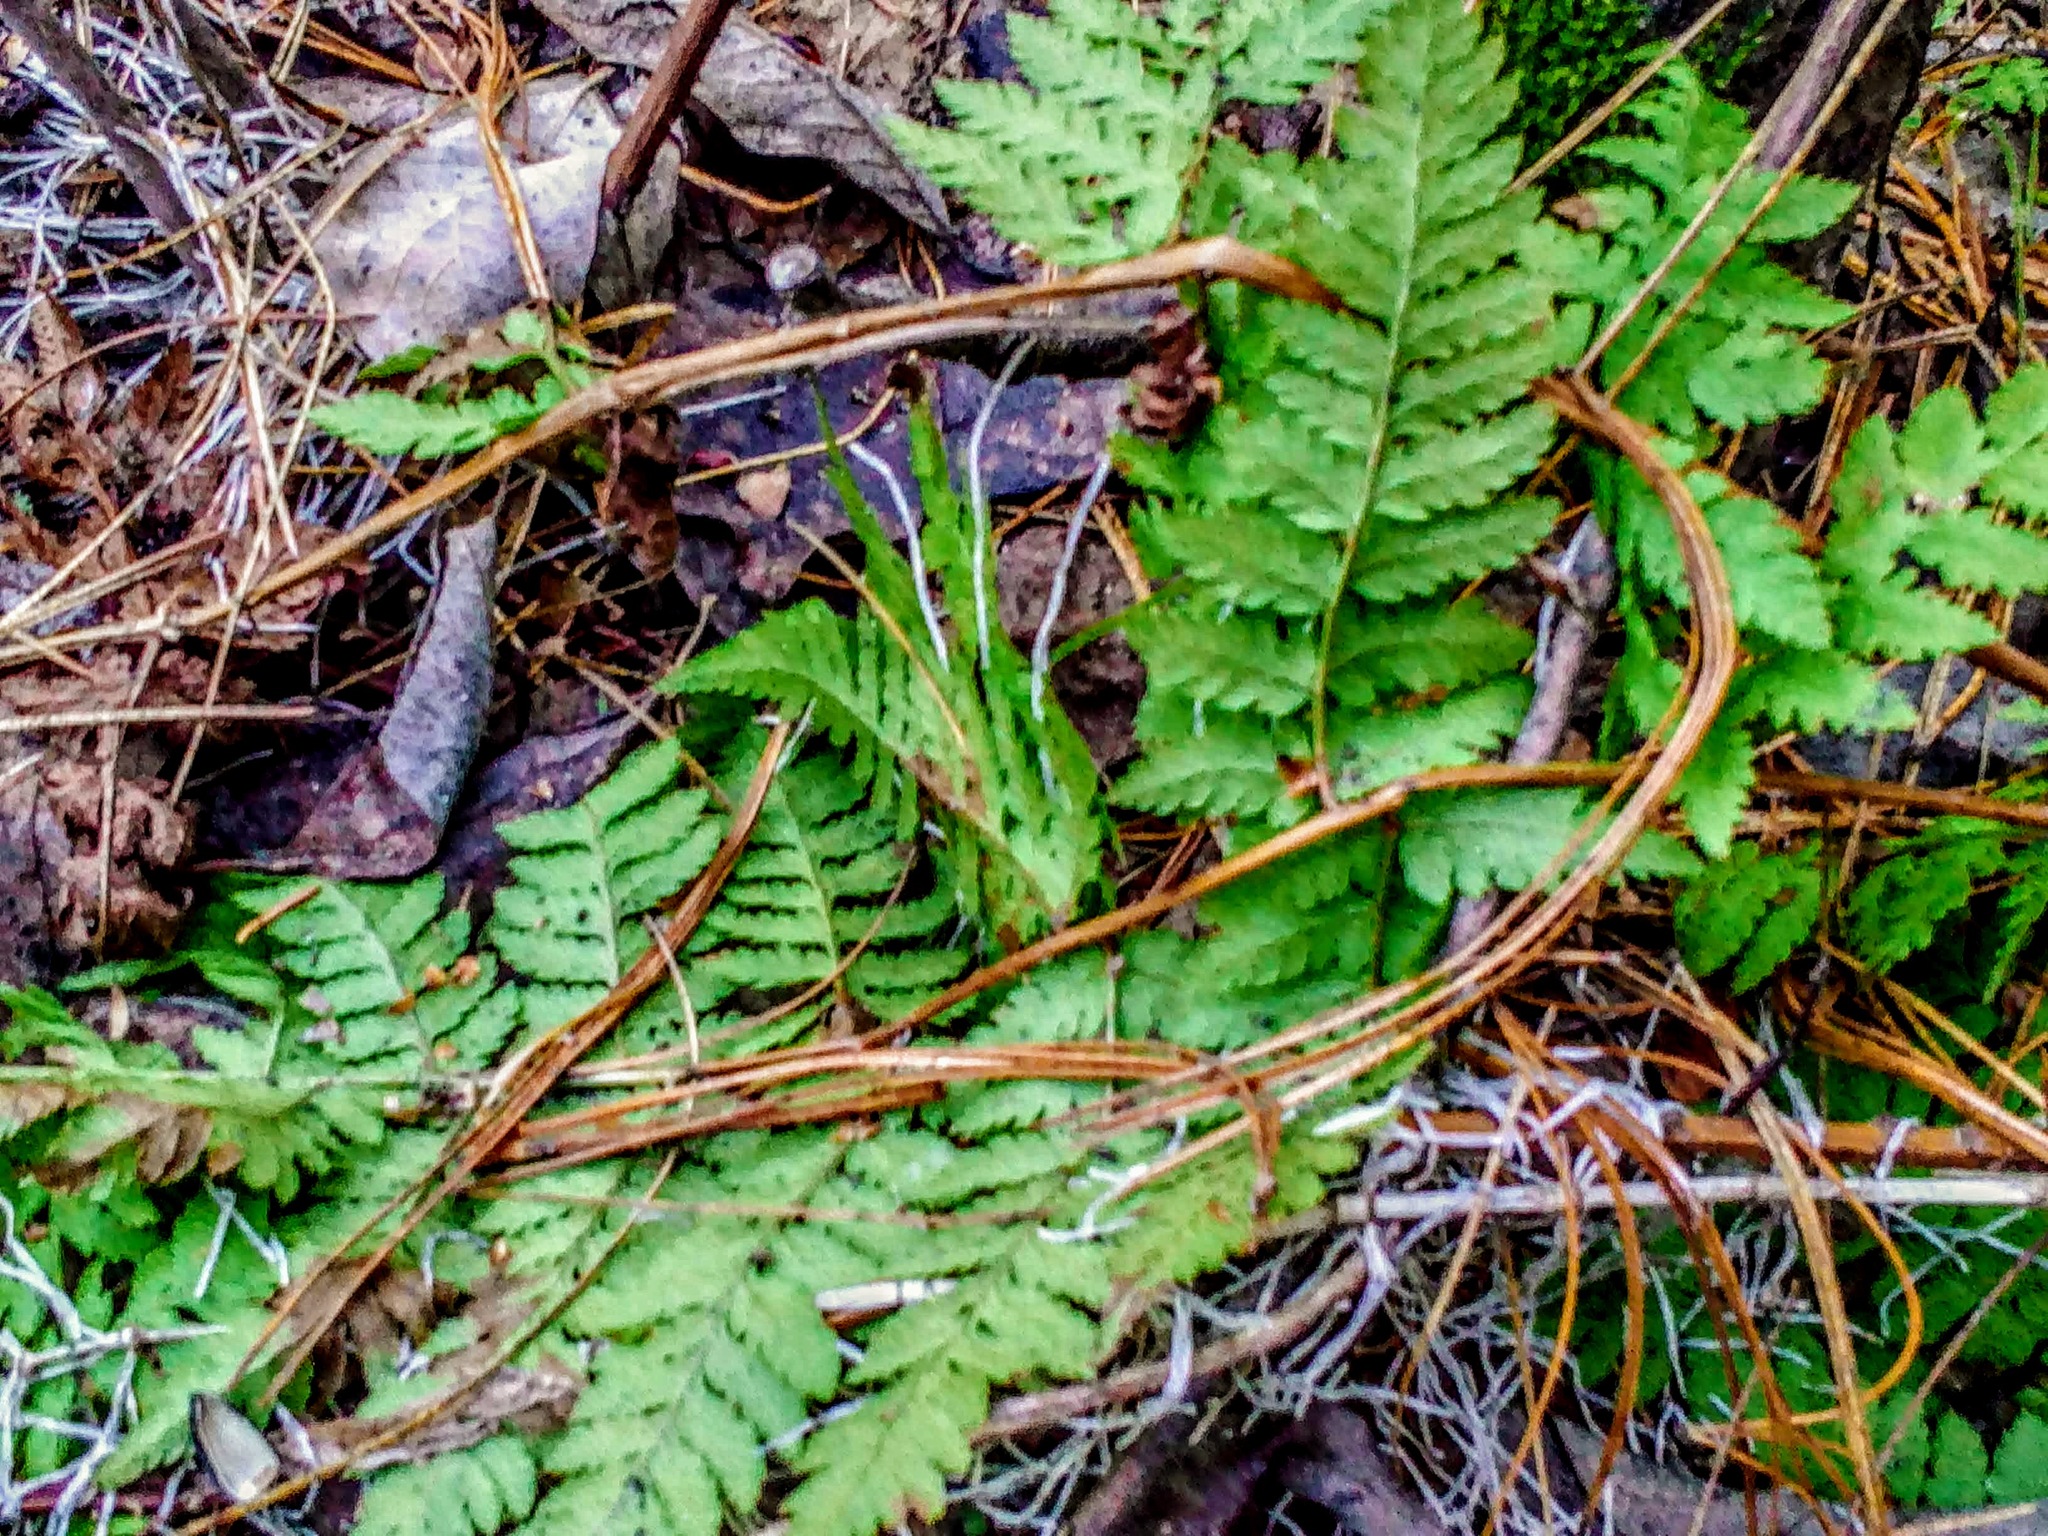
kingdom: Plantae
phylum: Tracheophyta
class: Polypodiopsida
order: Polypodiales
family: Dryopteridaceae
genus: Dryopteris
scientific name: Dryopteris carthusiana
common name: Narrow buckler-fern
